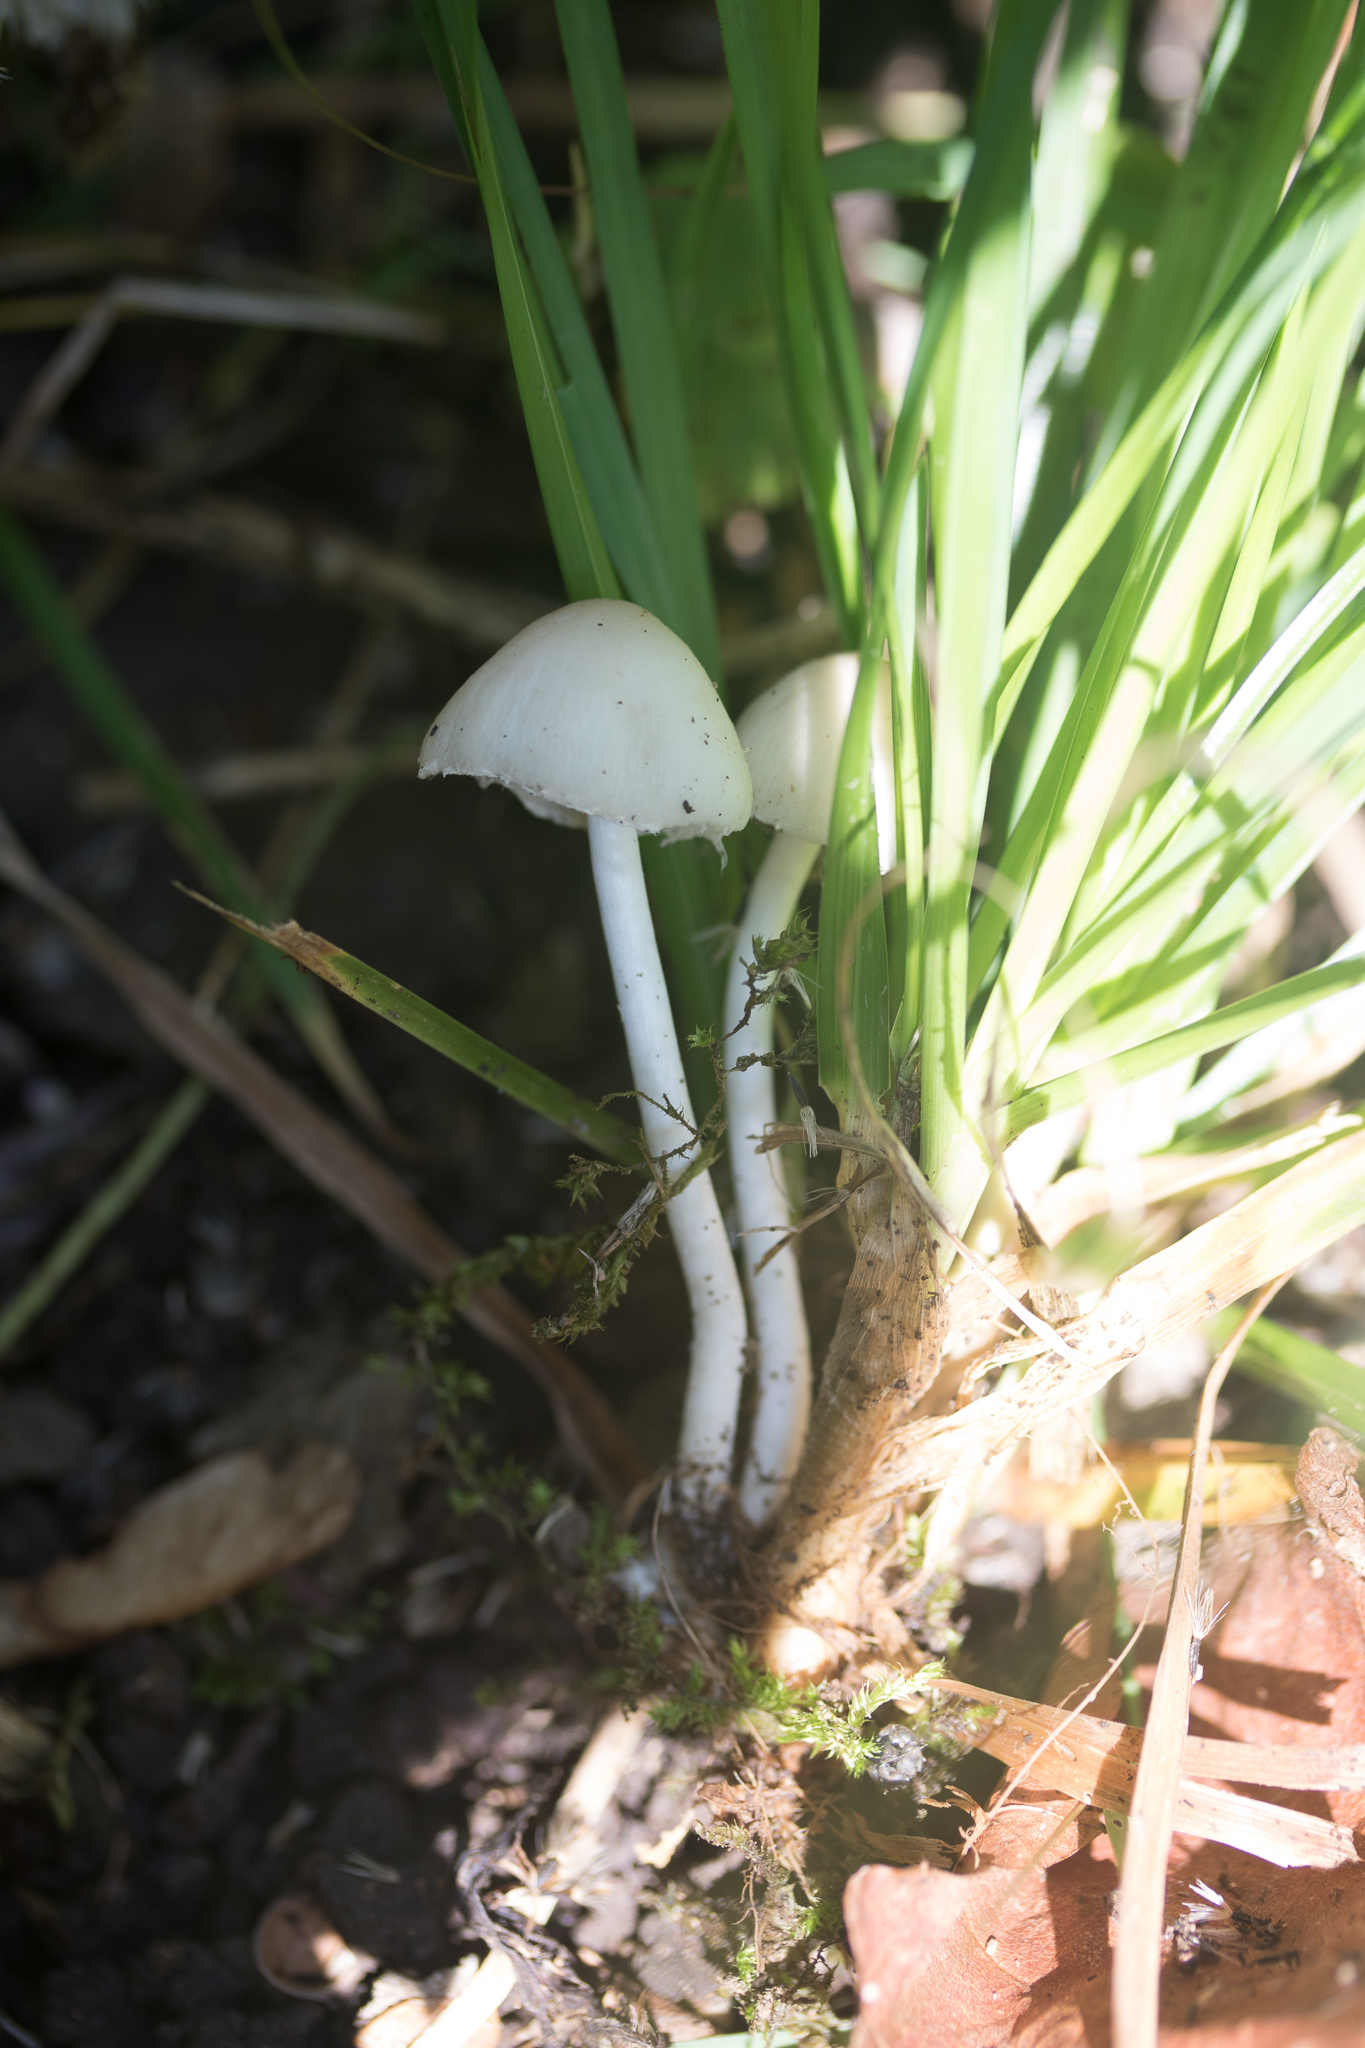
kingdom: Fungi
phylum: Basidiomycota
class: Agaricomycetes
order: Agaricales
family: Psathyrellaceae
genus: Candolleomyces
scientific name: Candolleomyces candolleanus
